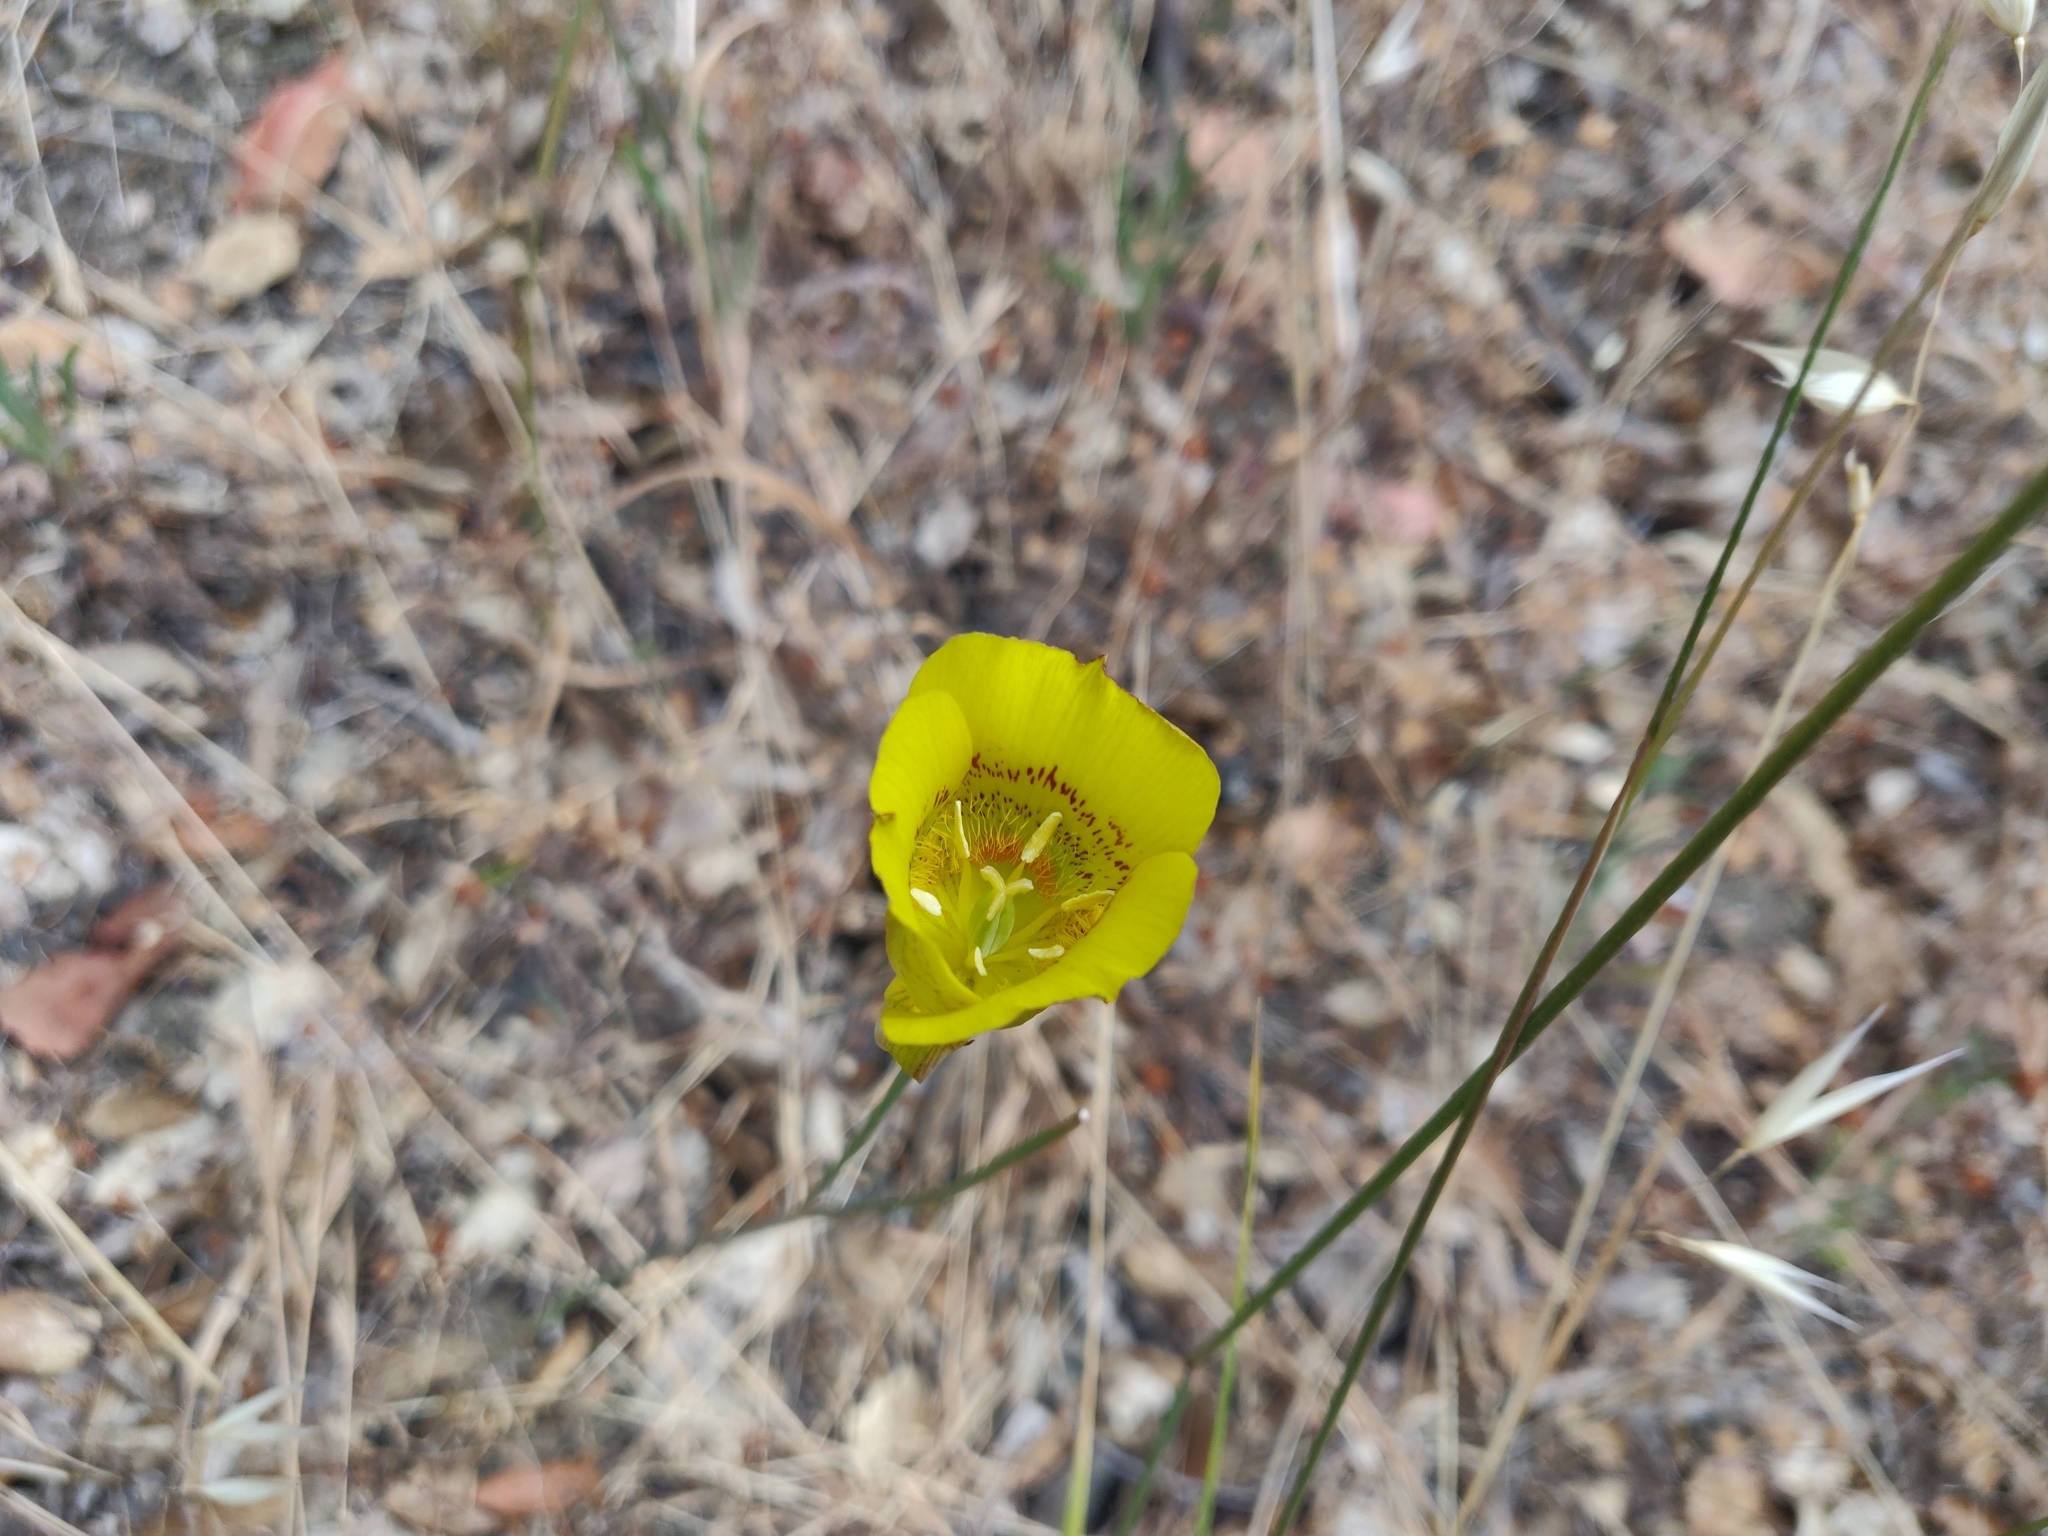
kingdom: Plantae
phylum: Tracheophyta
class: Liliopsida
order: Liliales
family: Liliaceae
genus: Calochortus
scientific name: Calochortus luteus
